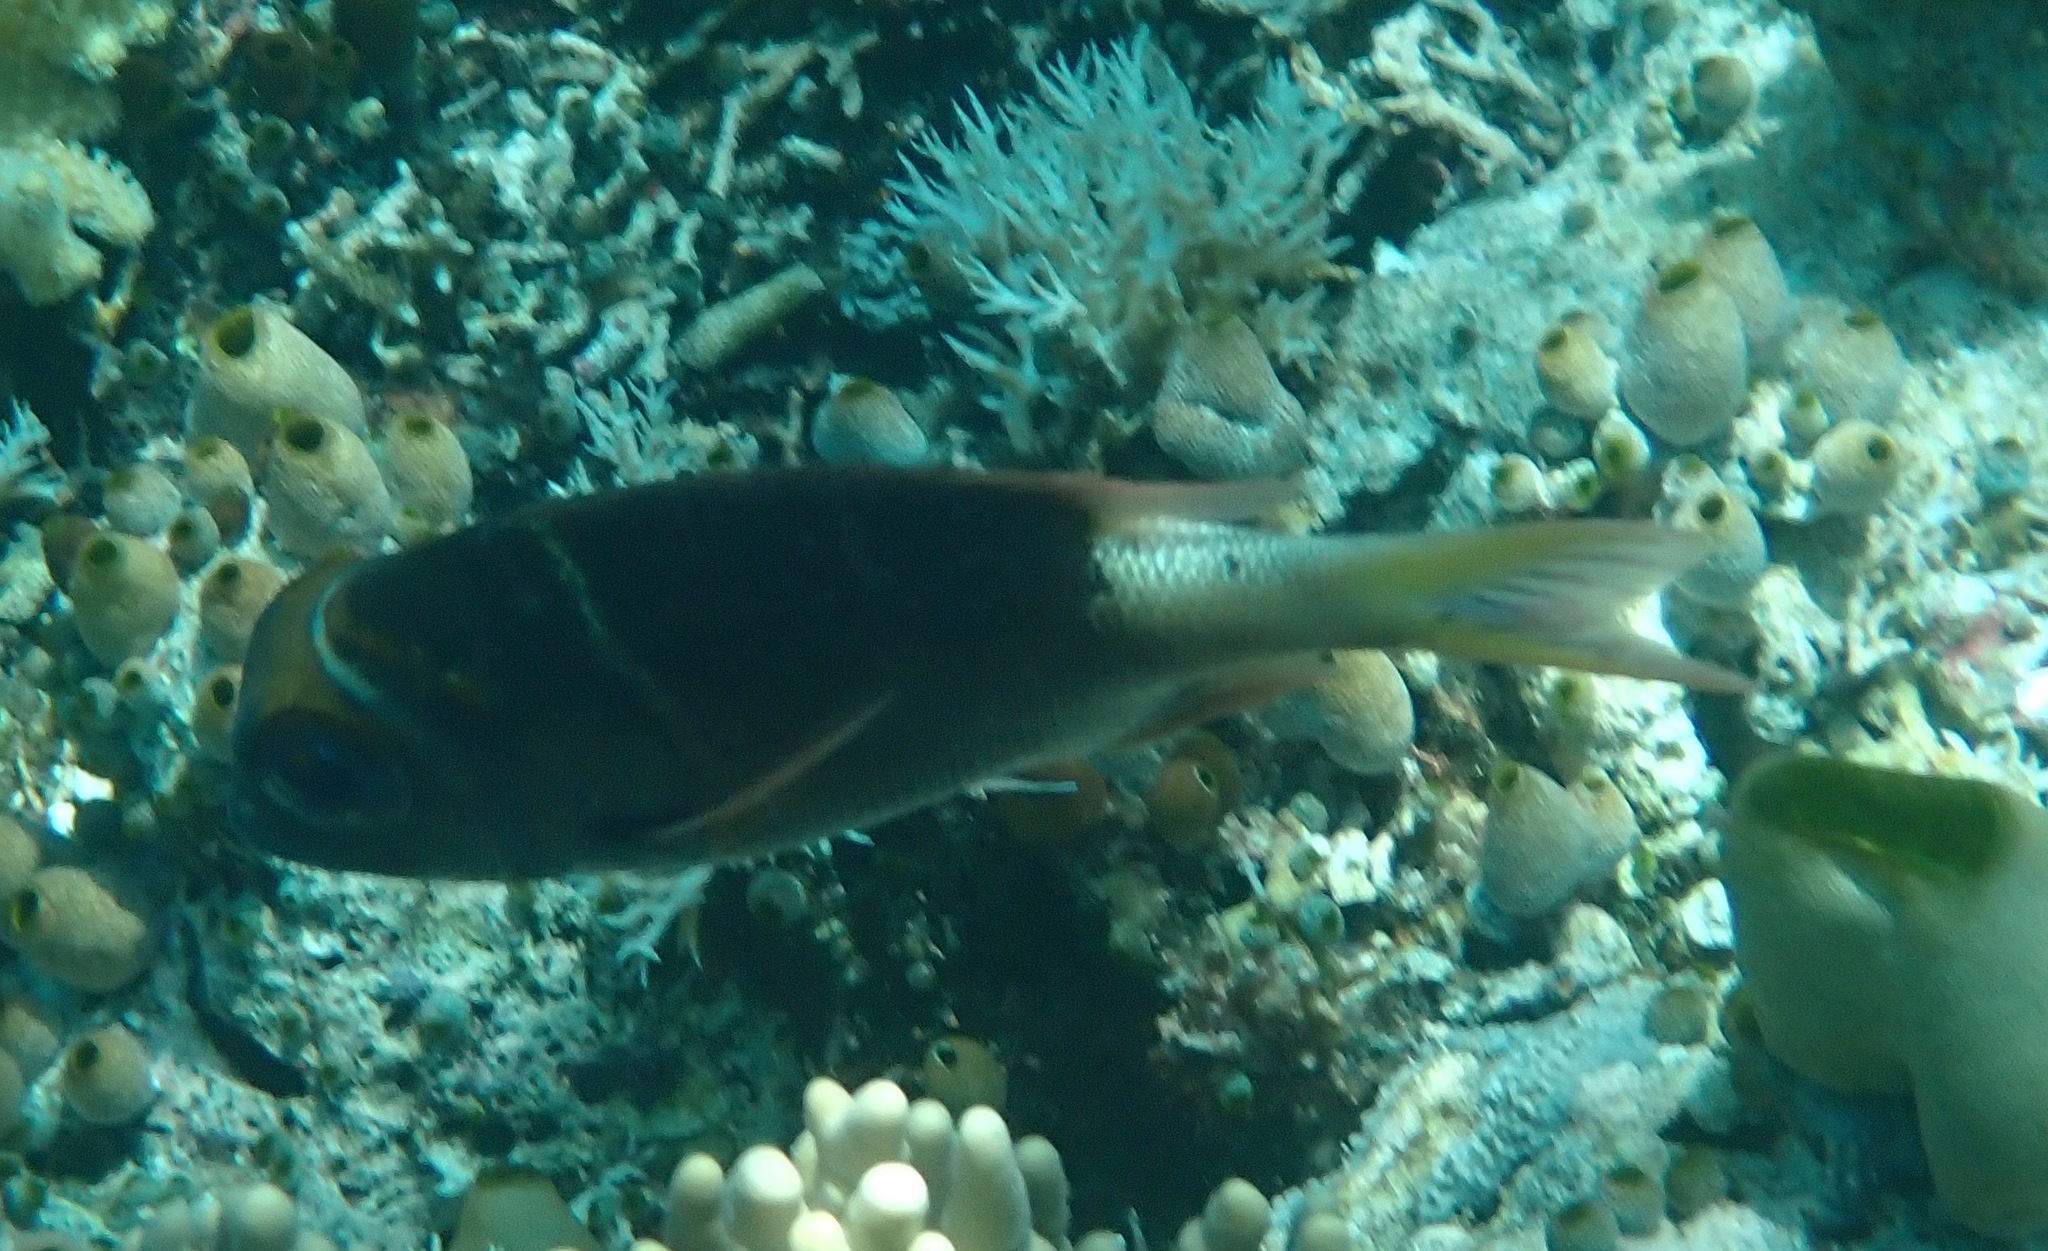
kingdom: Animalia
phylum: Chordata
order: Perciformes
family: Lethrinidae
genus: Monotaxis
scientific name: Monotaxis heterodon
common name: Redfin emperor
